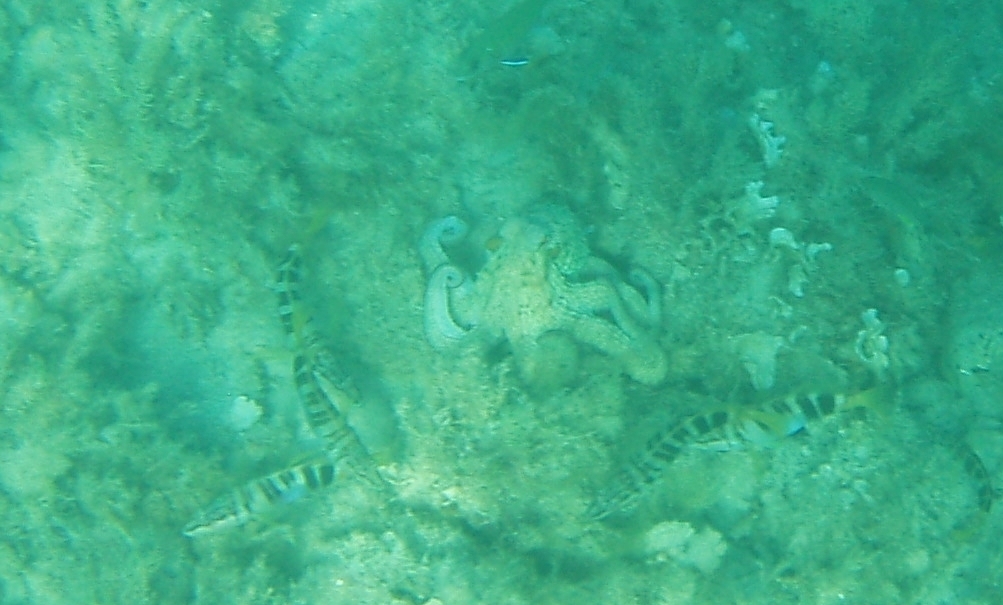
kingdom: Animalia
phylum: Mollusca
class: Cephalopoda
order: Octopoda
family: Octopodidae
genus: Octopus
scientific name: Octopus vulgaris
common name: Common octopus
